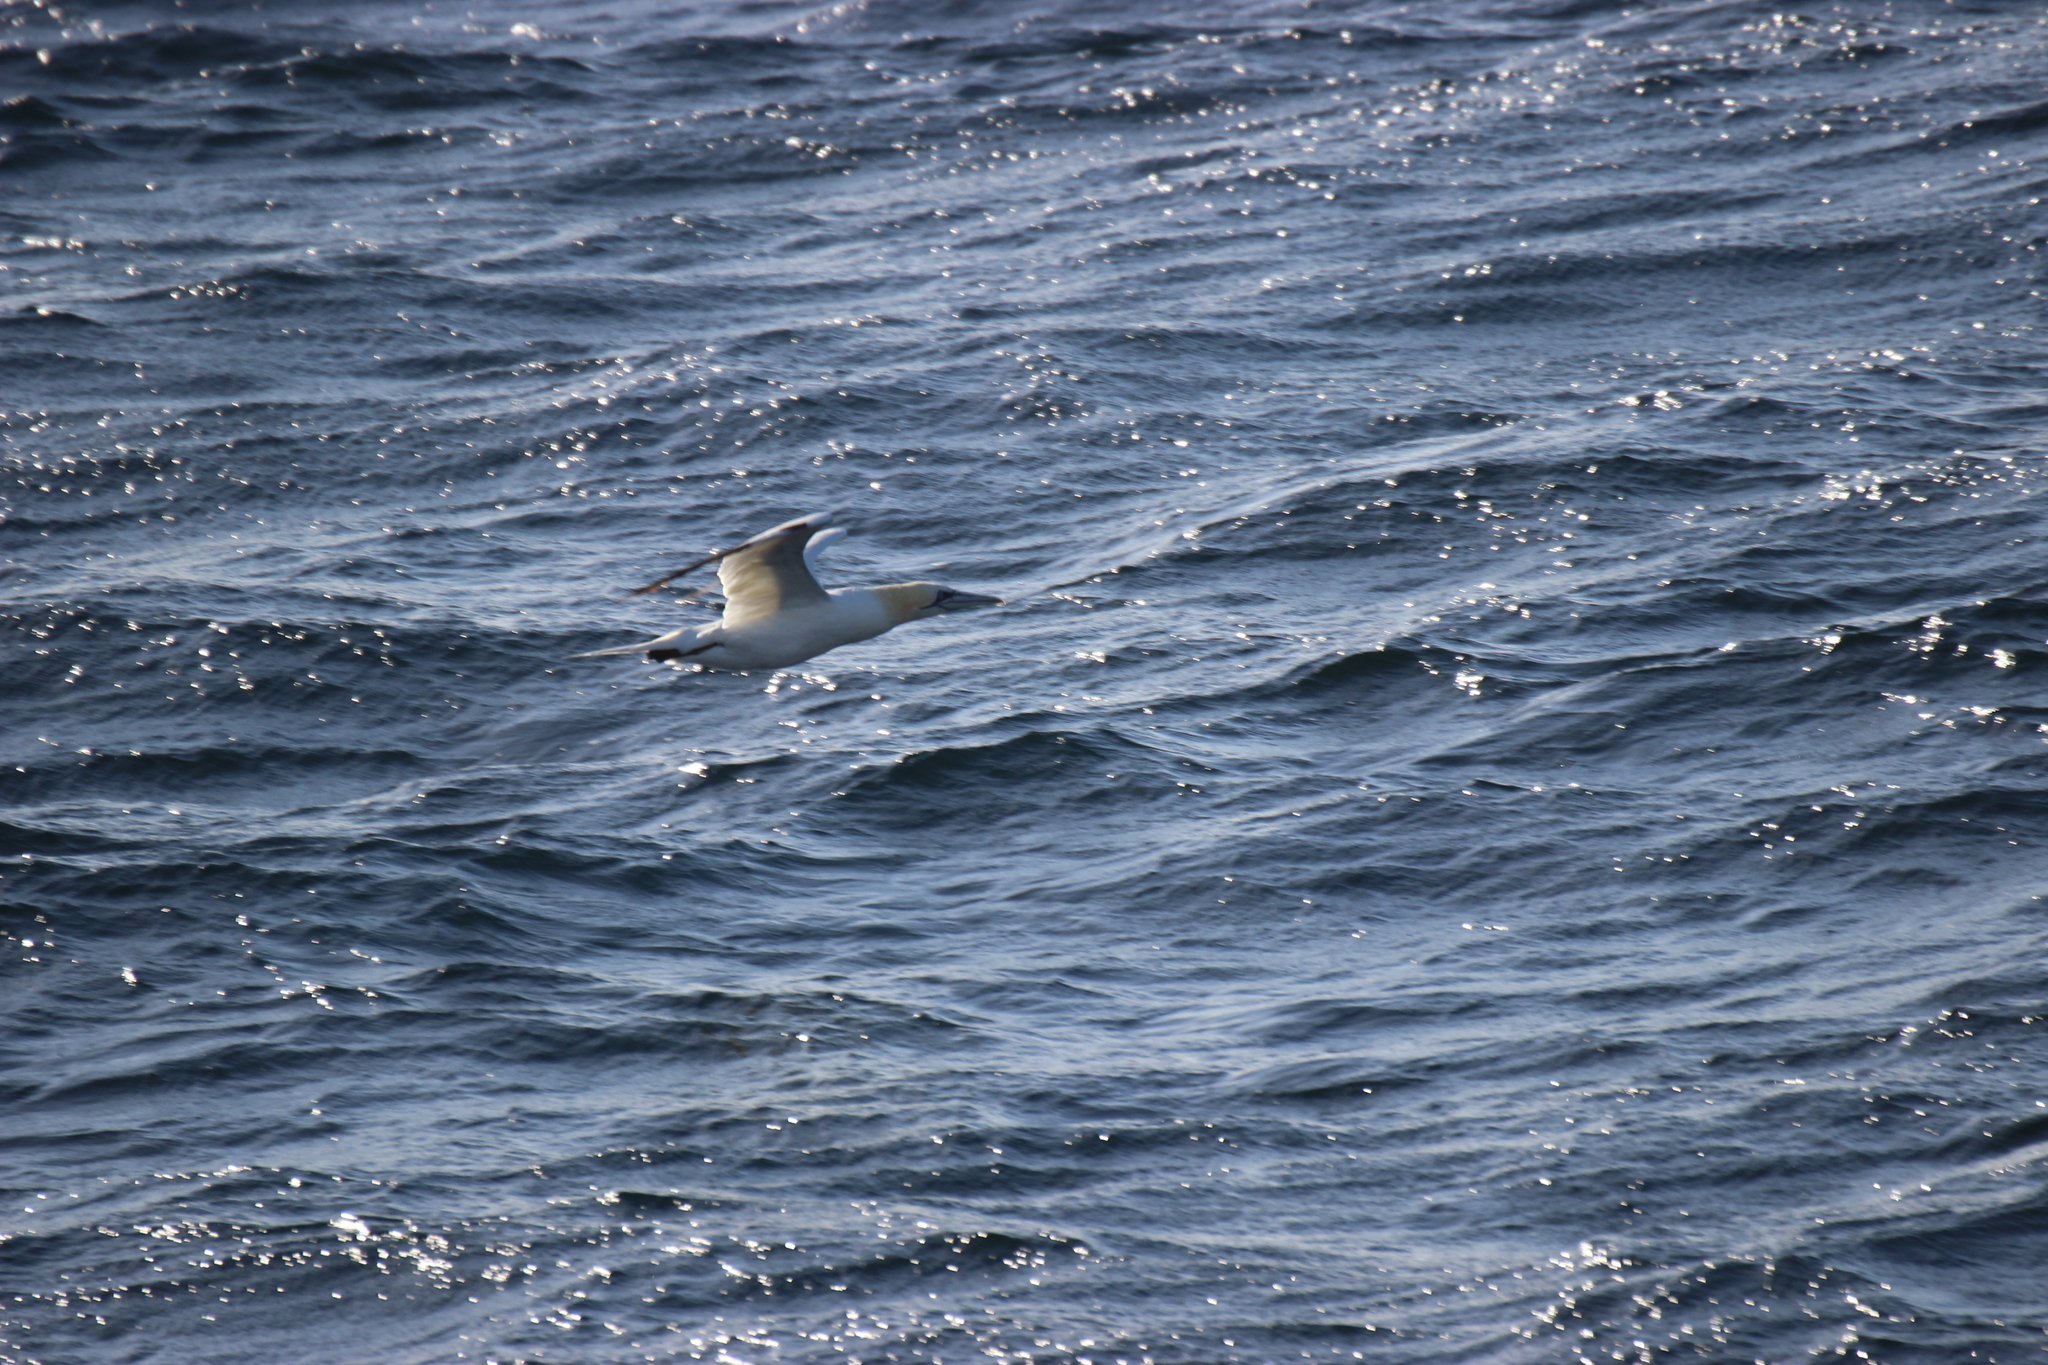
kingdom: Animalia
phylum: Chordata
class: Aves
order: Suliformes
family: Sulidae
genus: Morus
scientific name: Morus bassanus
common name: Northern gannet
